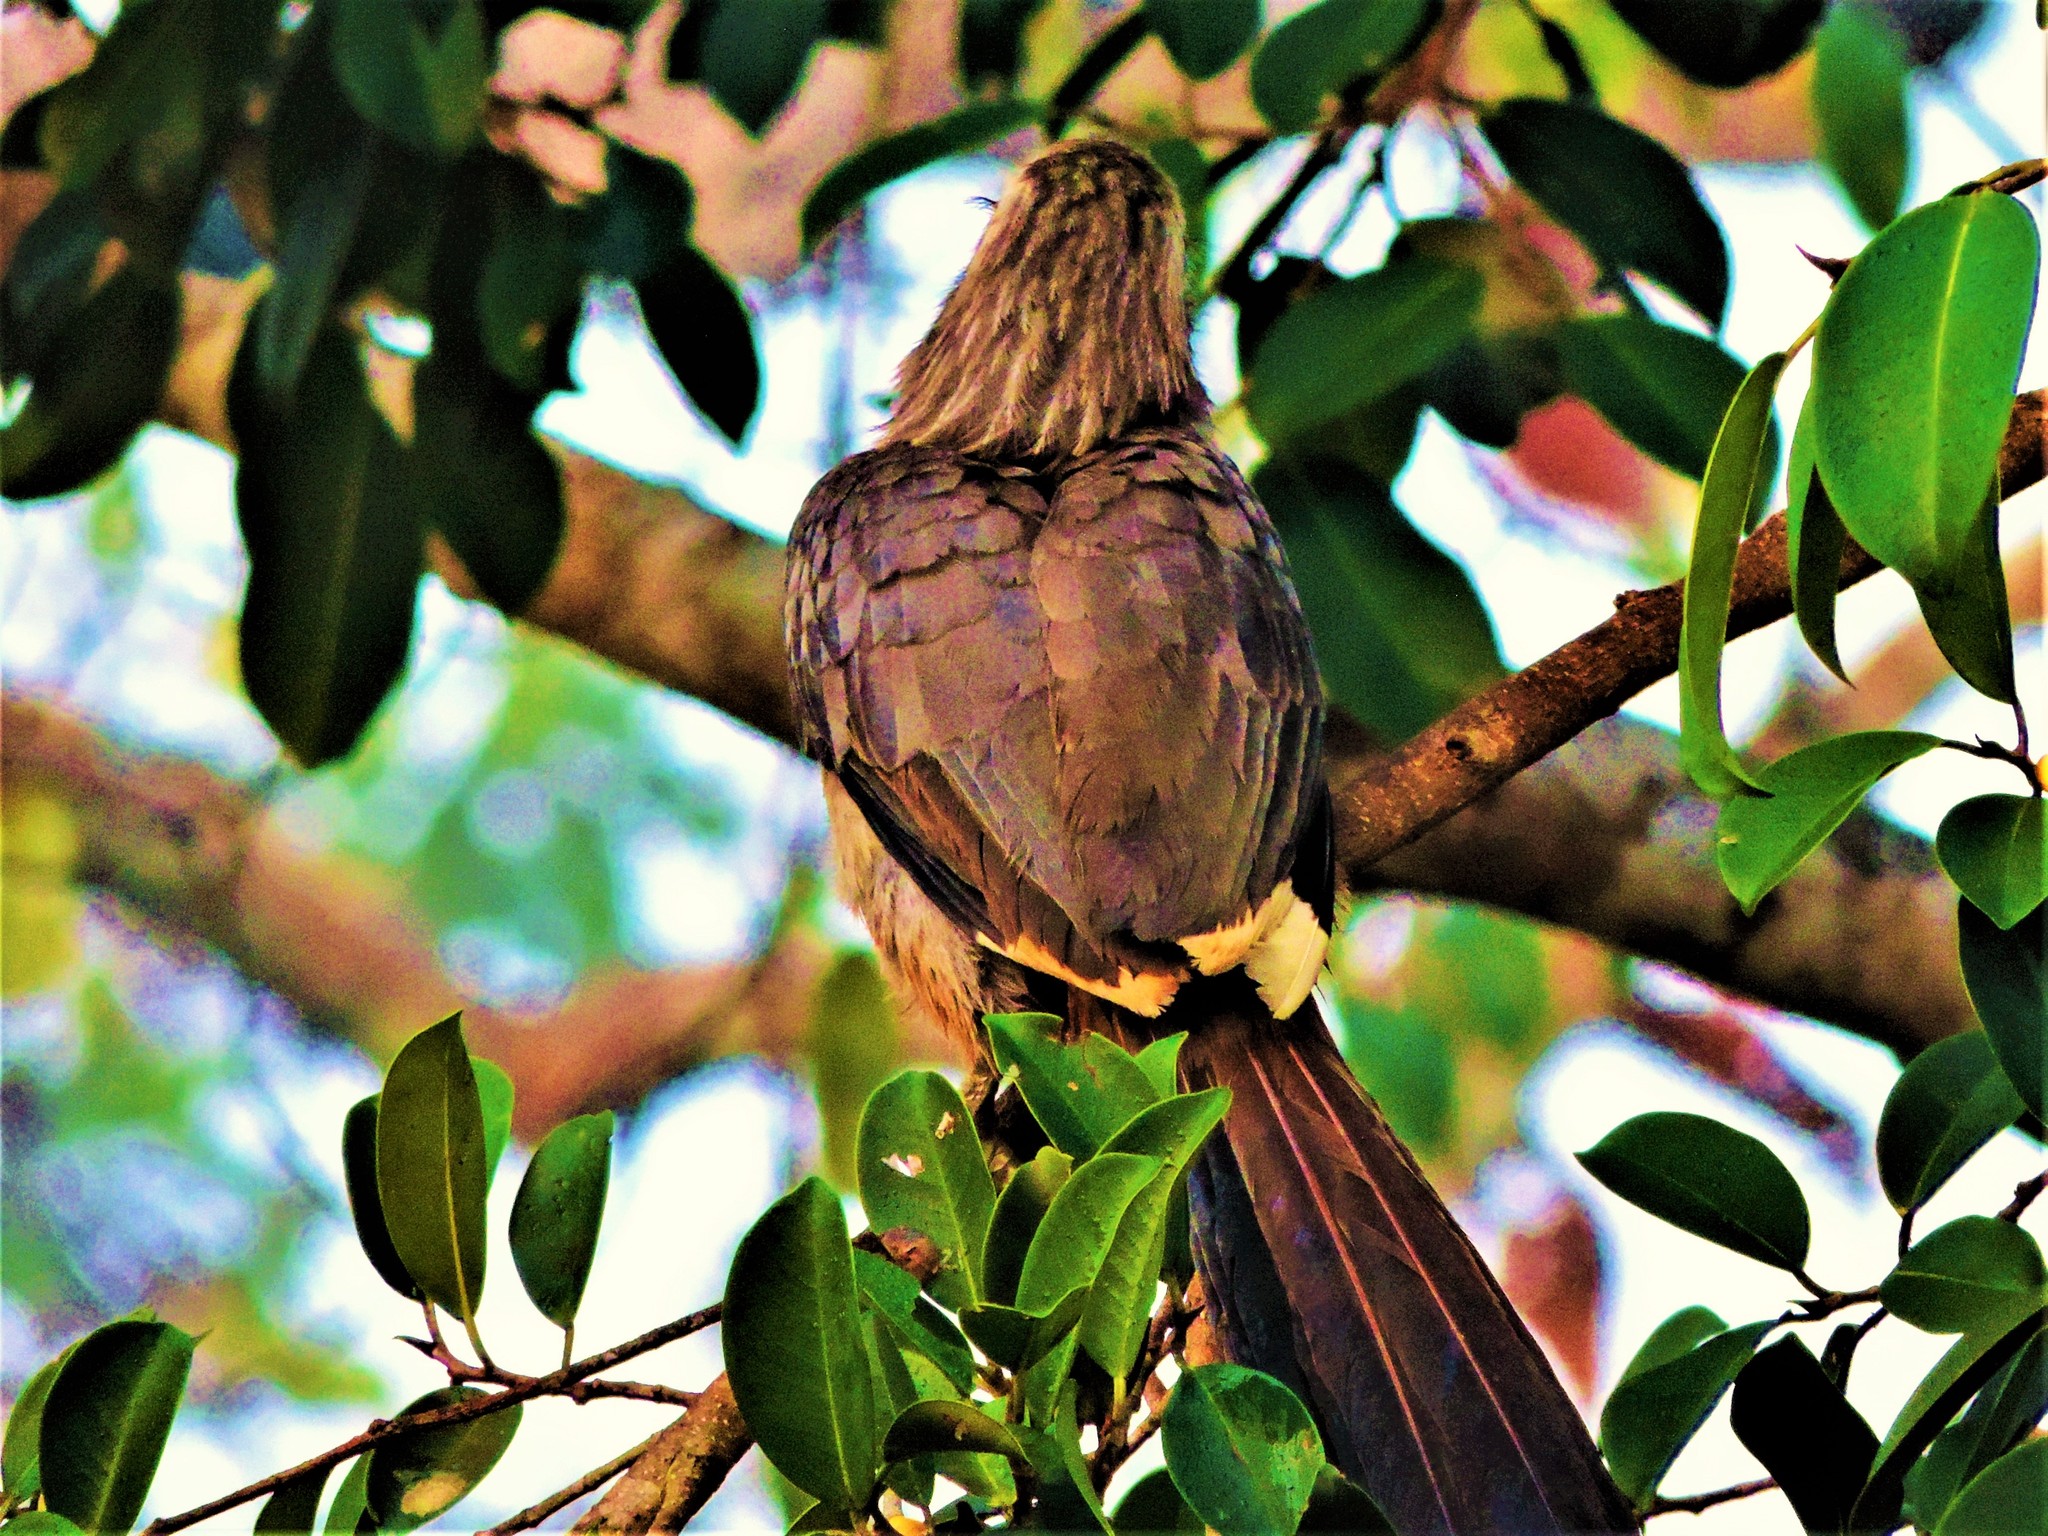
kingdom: Animalia
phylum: Chordata
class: Aves
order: Bucerotiformes
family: Bucerotidae
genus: Ocyceros
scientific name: Ocyceros griseus
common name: Malabar grey hornbill
